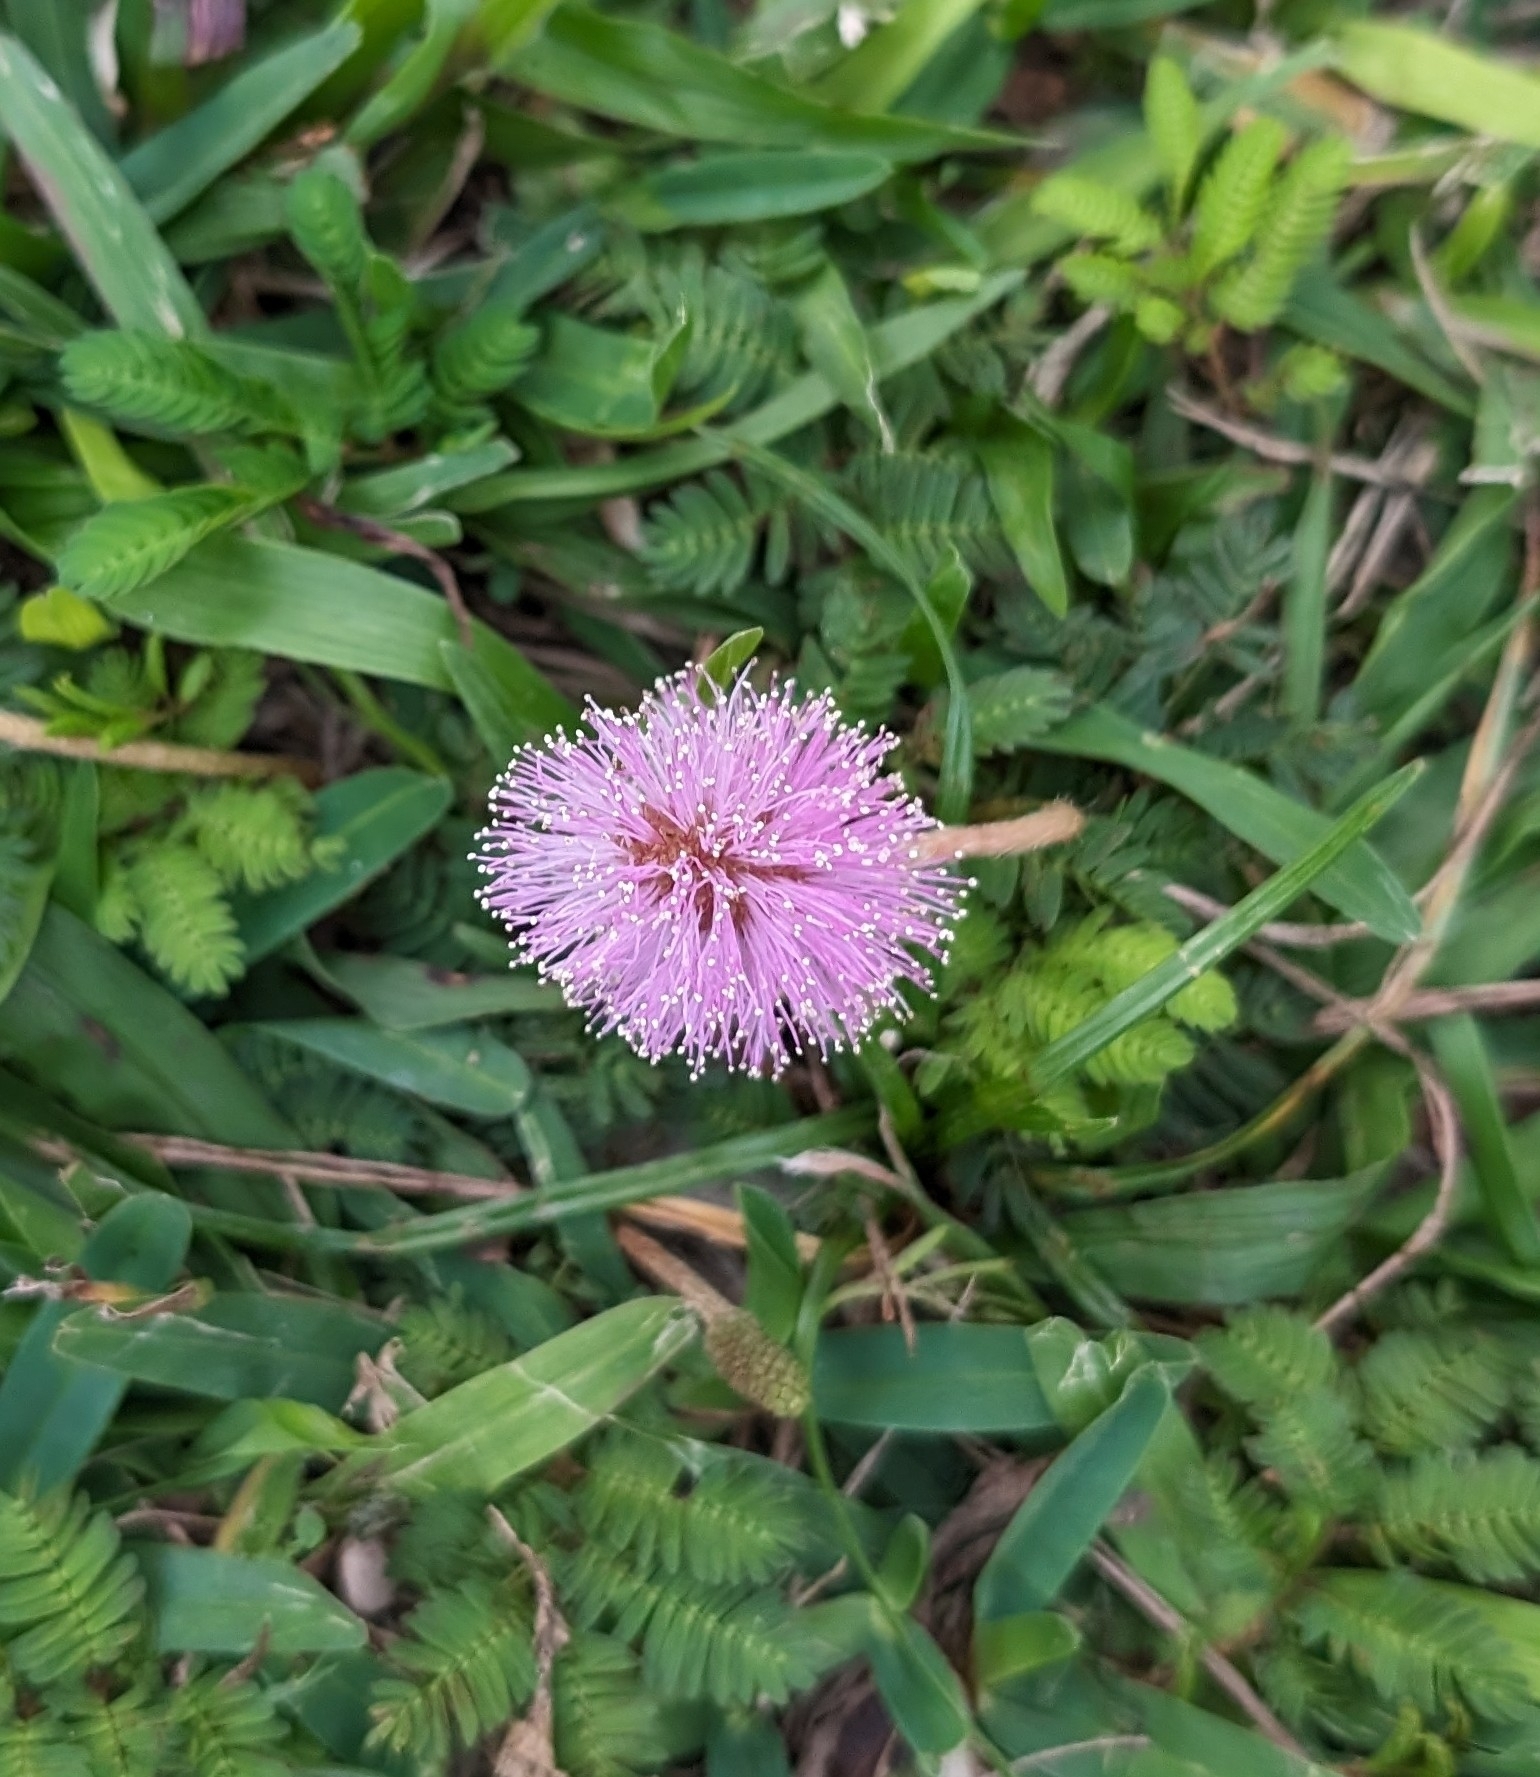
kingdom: Plantae
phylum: Tracheophyta
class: Magnoliopsida
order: Fabales
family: Fabaceae
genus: Mimosa
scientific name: Mimosa strigillosa
